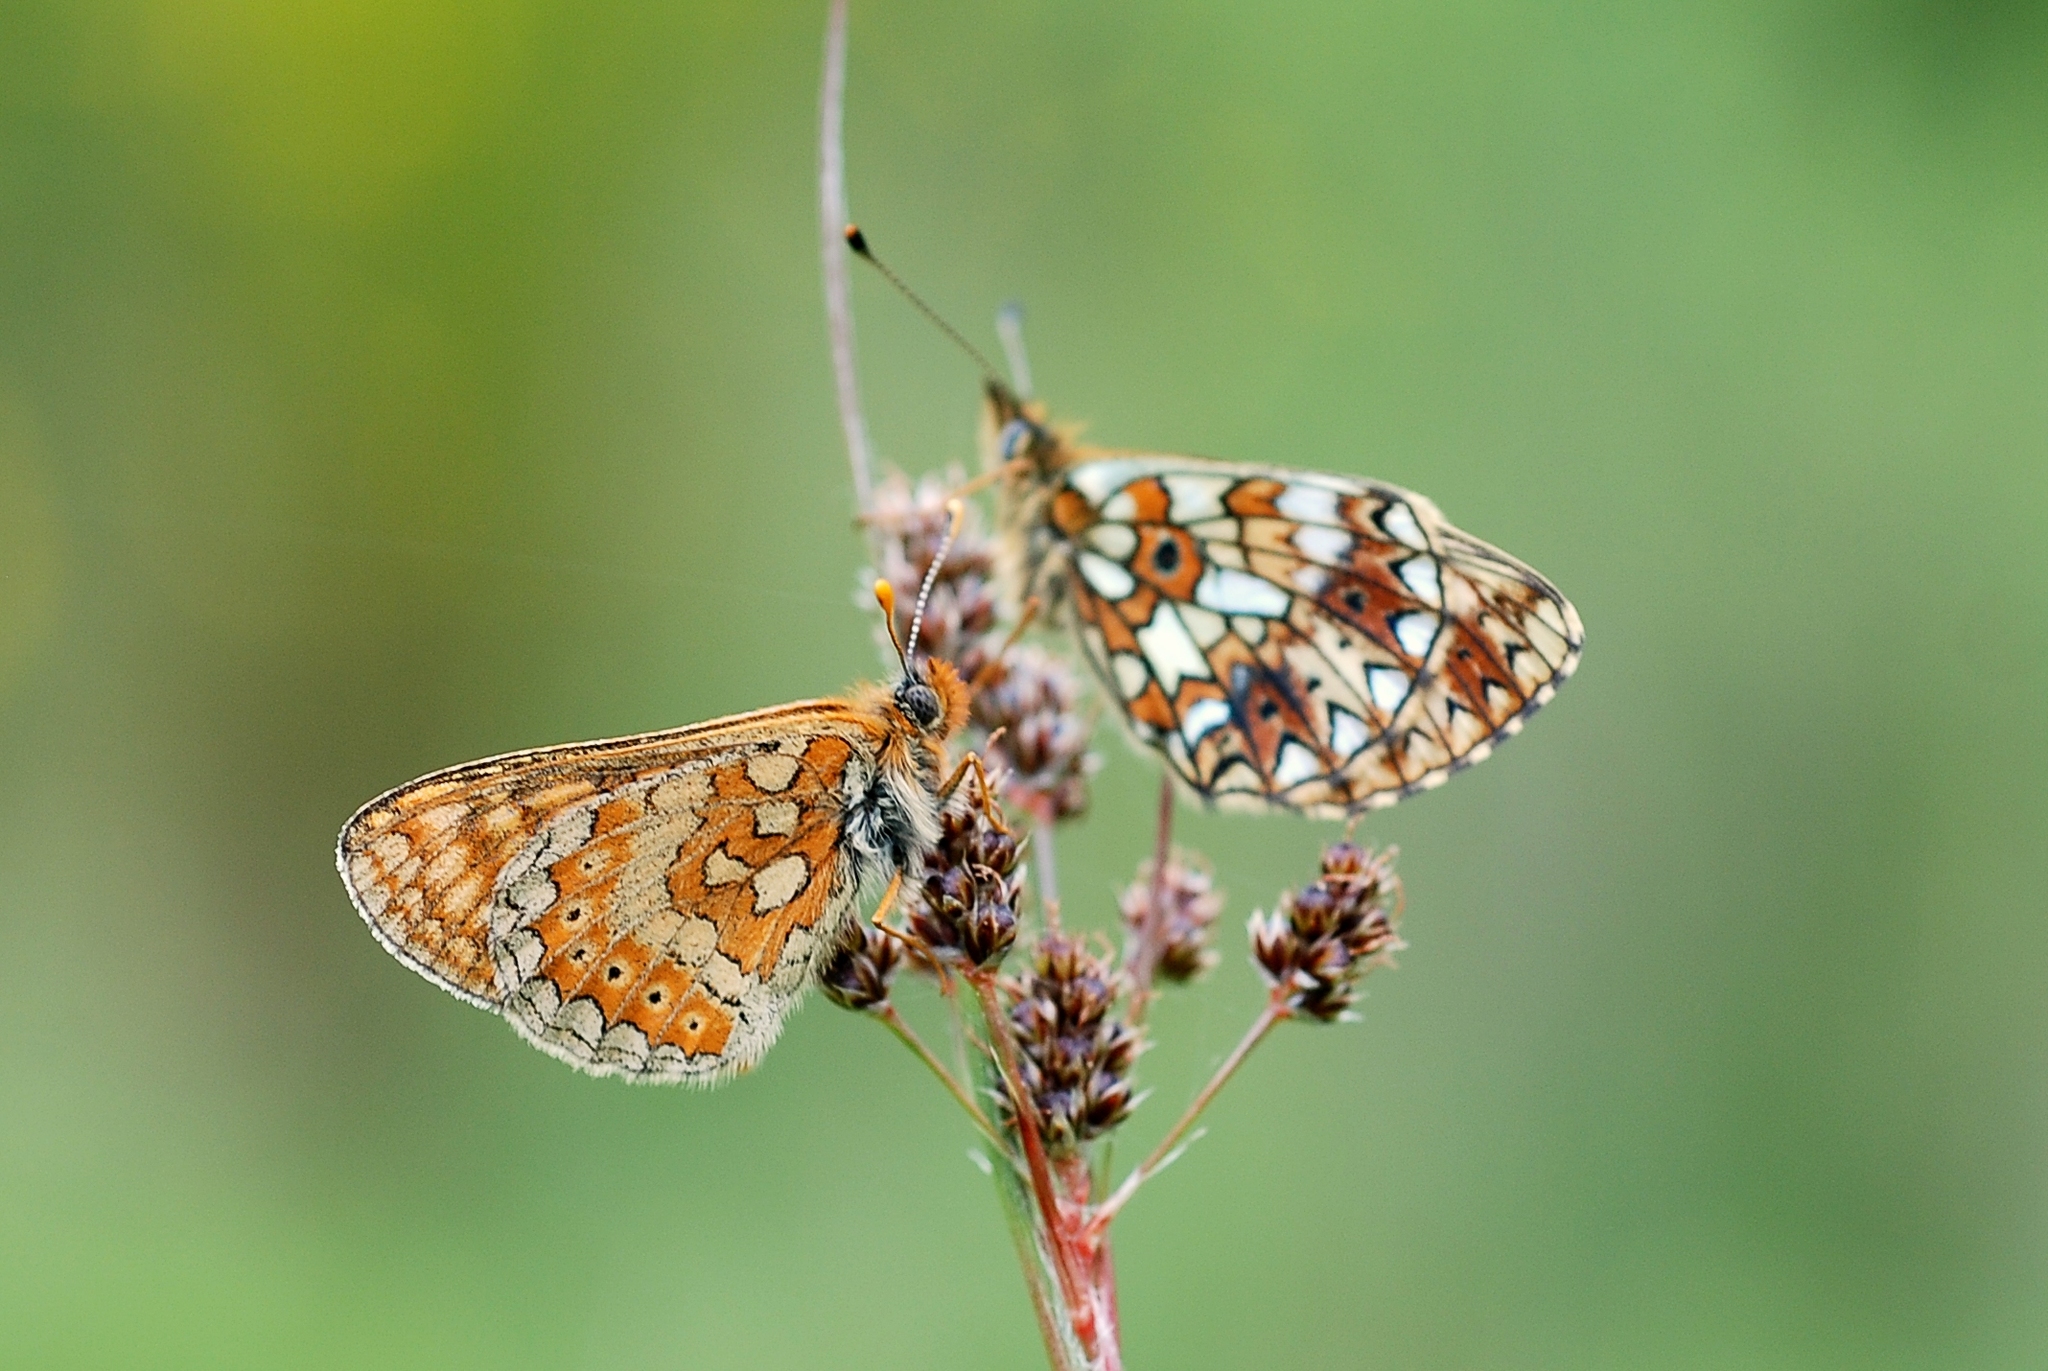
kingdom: Animalia
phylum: Arthropoda
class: Insecta
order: Lepidoptera
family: Nymphalidae
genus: Euphydryas
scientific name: Euphydryas aurinia
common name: Marsh fritillary
